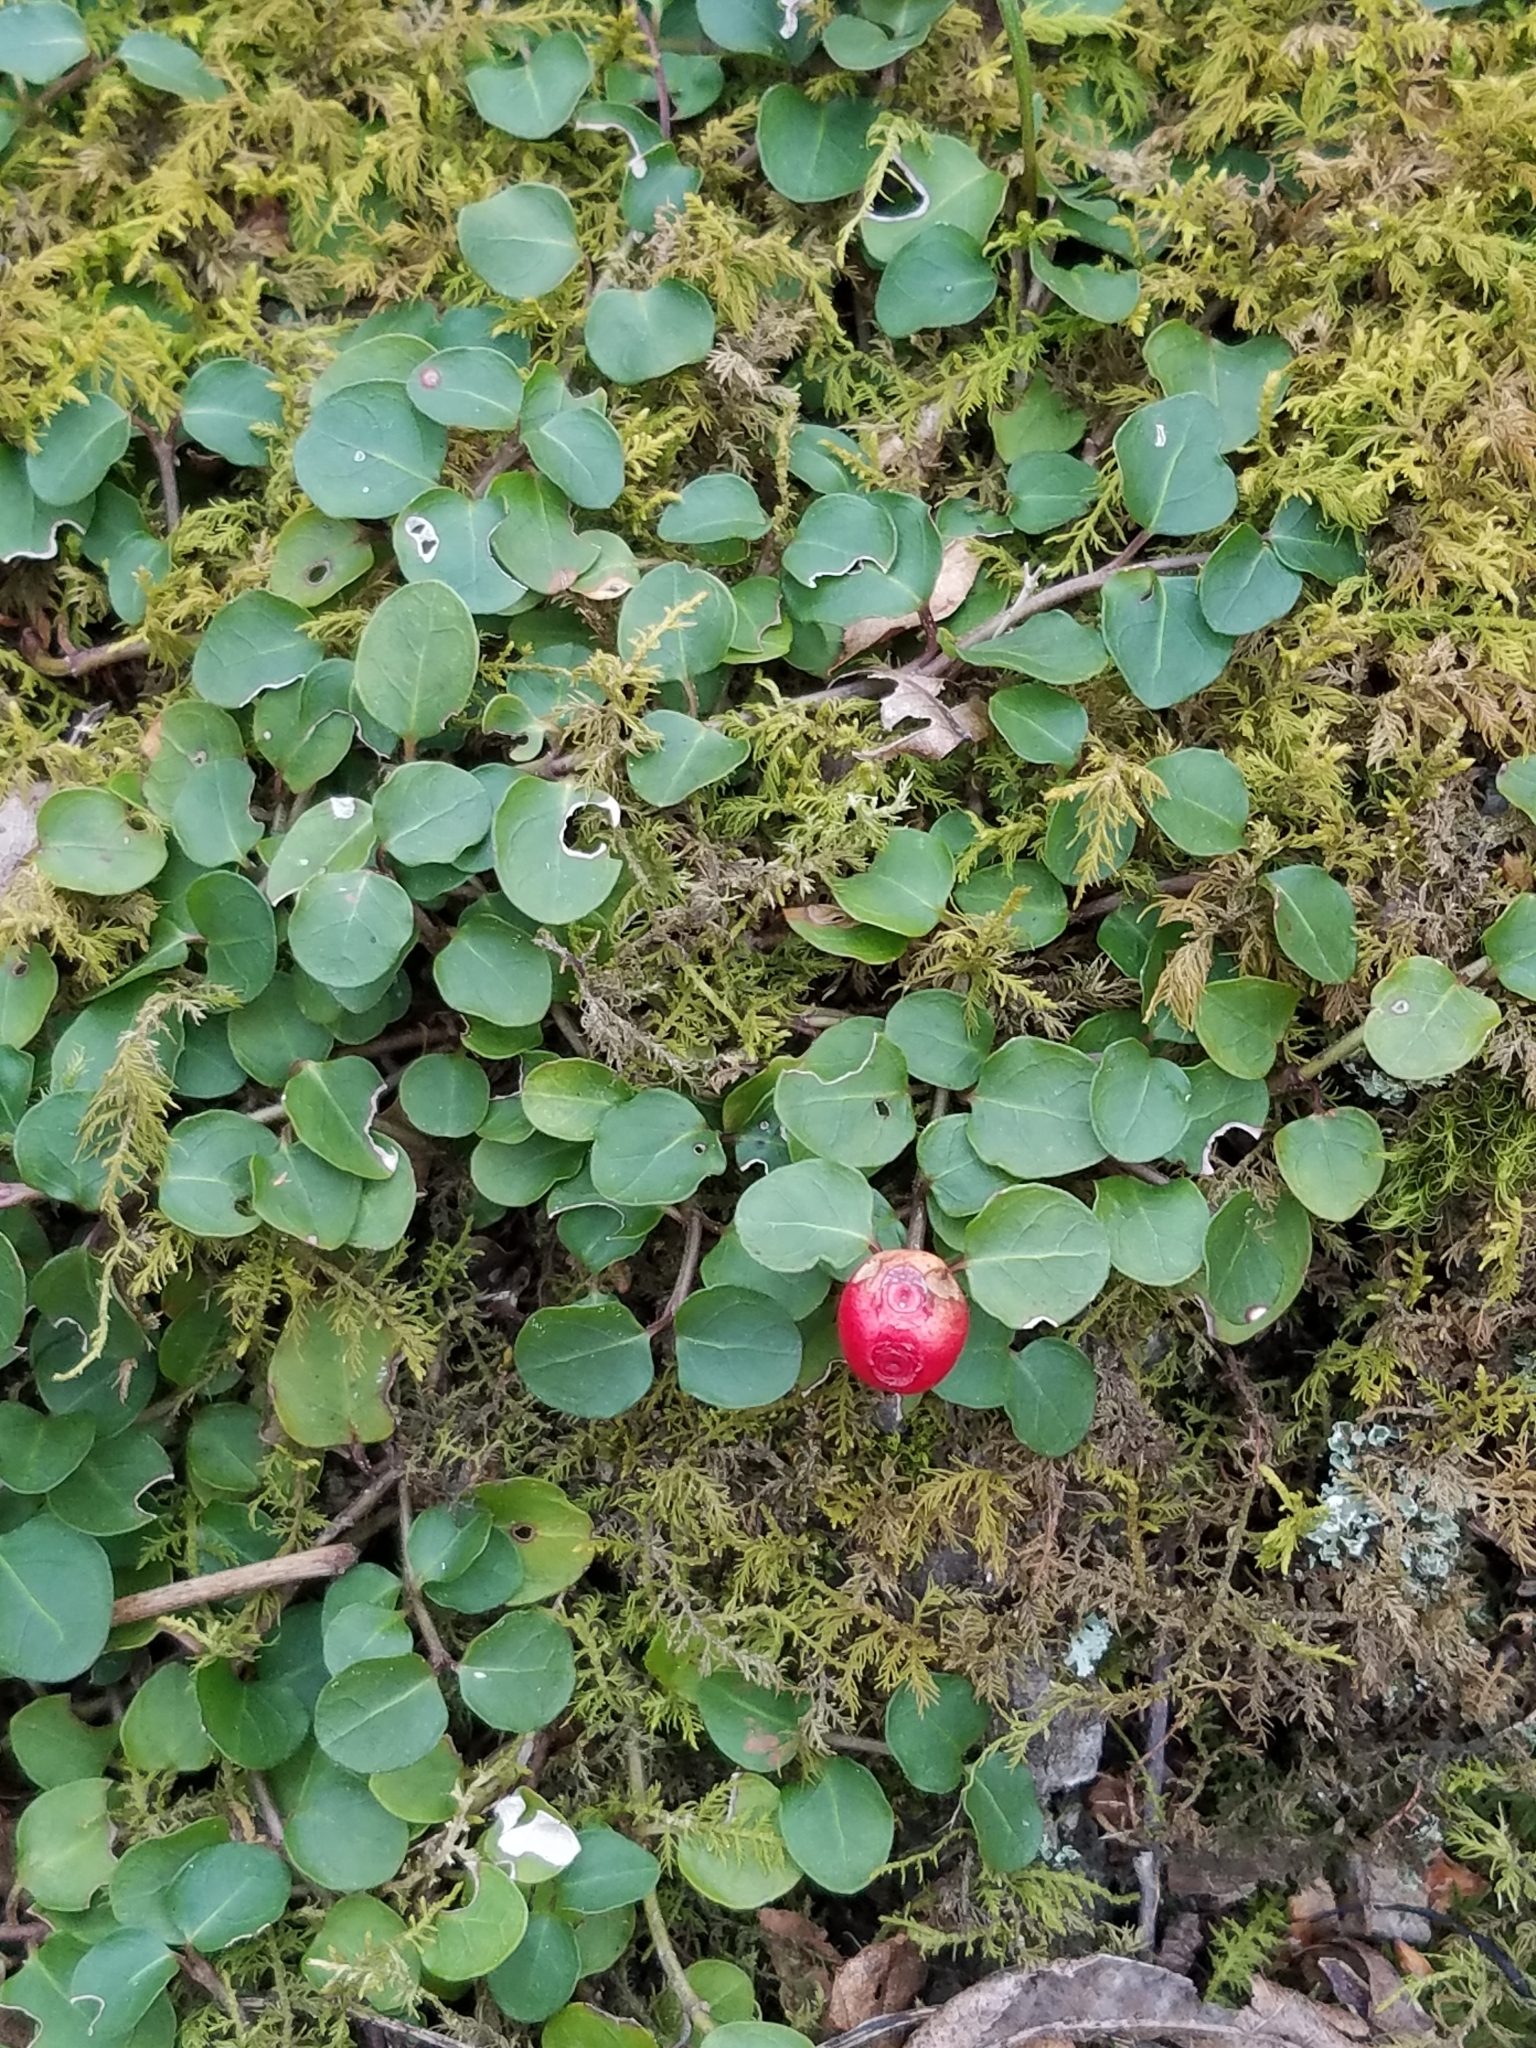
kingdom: Plantae
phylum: Tracheophyta
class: Magnoliopsida
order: Gentianales
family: Rubiaceae
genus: Mitchella
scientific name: Mitchella repens
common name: Partridge-berry
